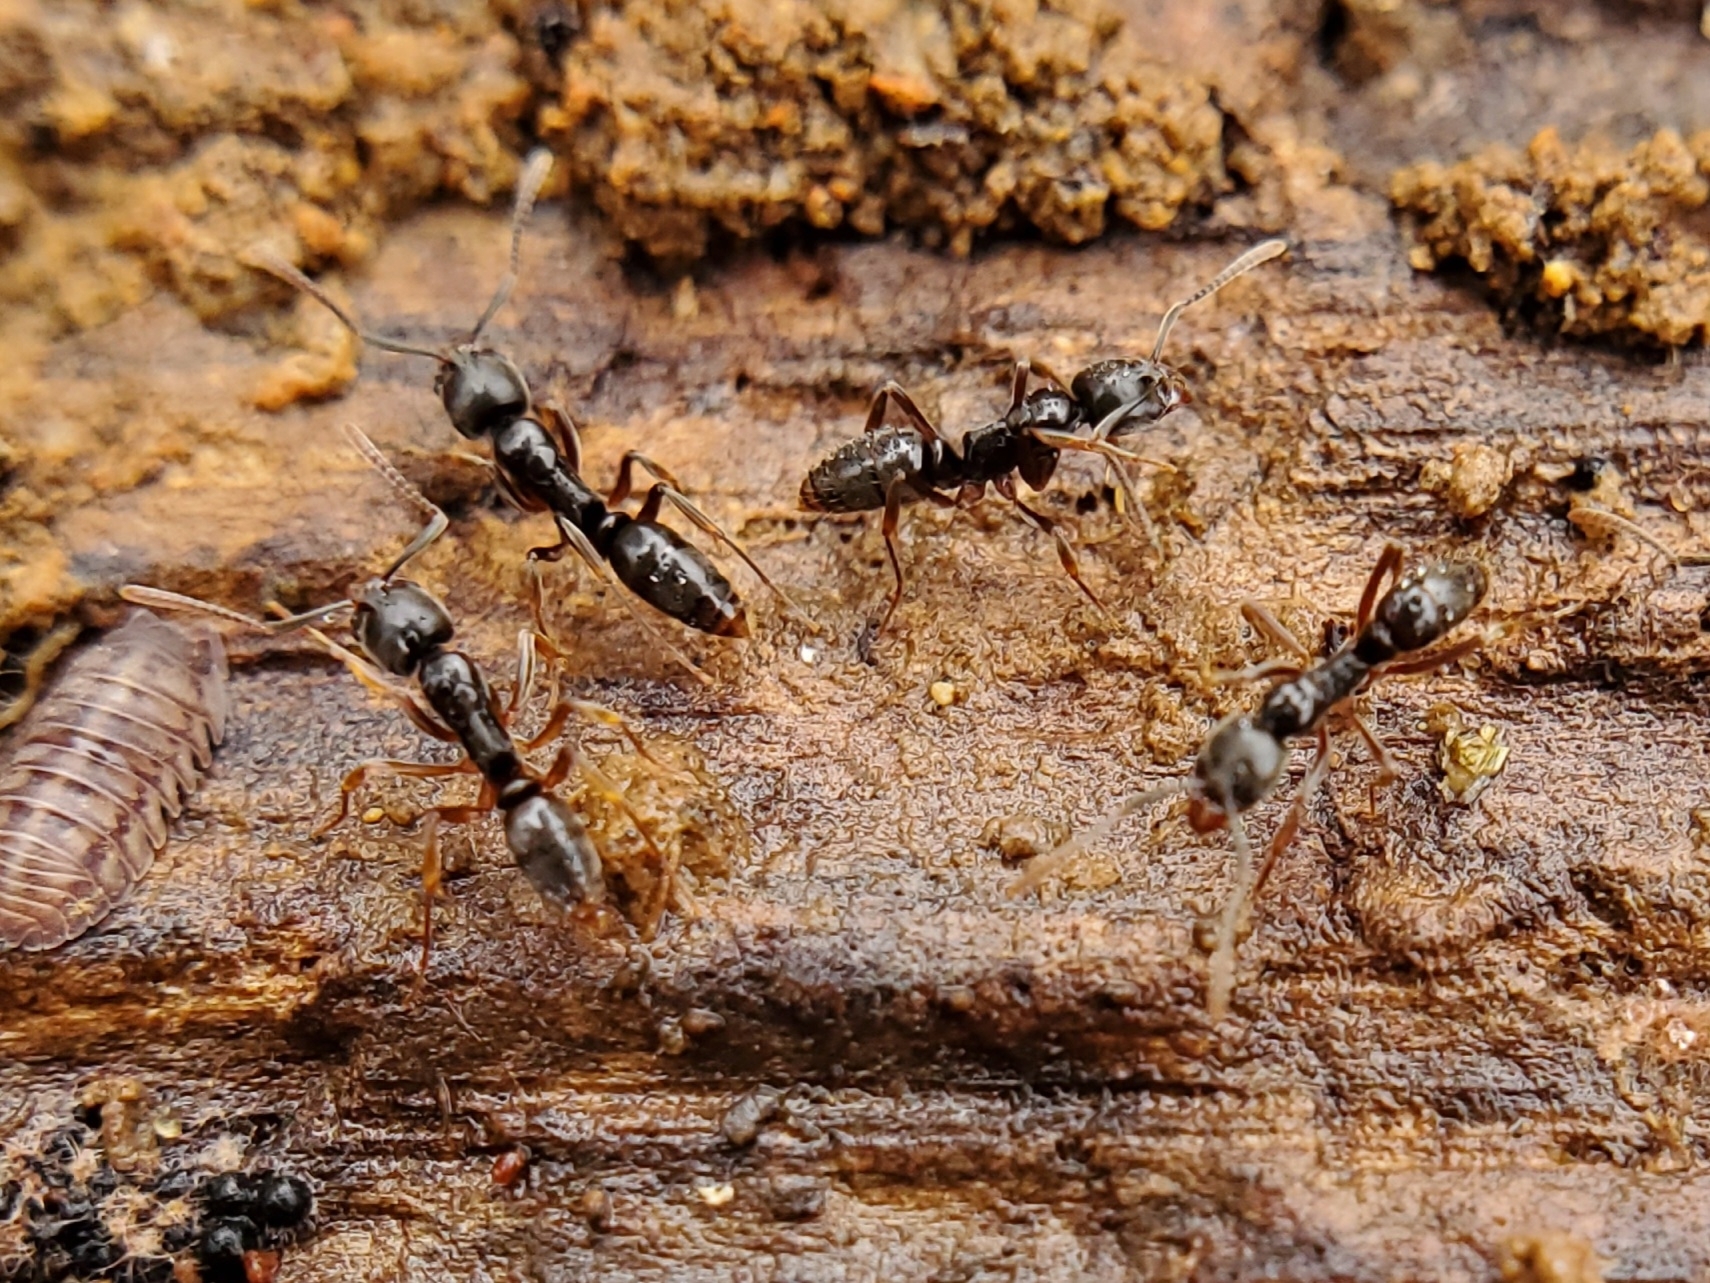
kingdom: Animalia
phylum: Arthropoda
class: Insecta
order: Hymenoptera
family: Formicidae
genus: Pachycondyla
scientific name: Pachycondyla chinensis
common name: Asian needle ant
